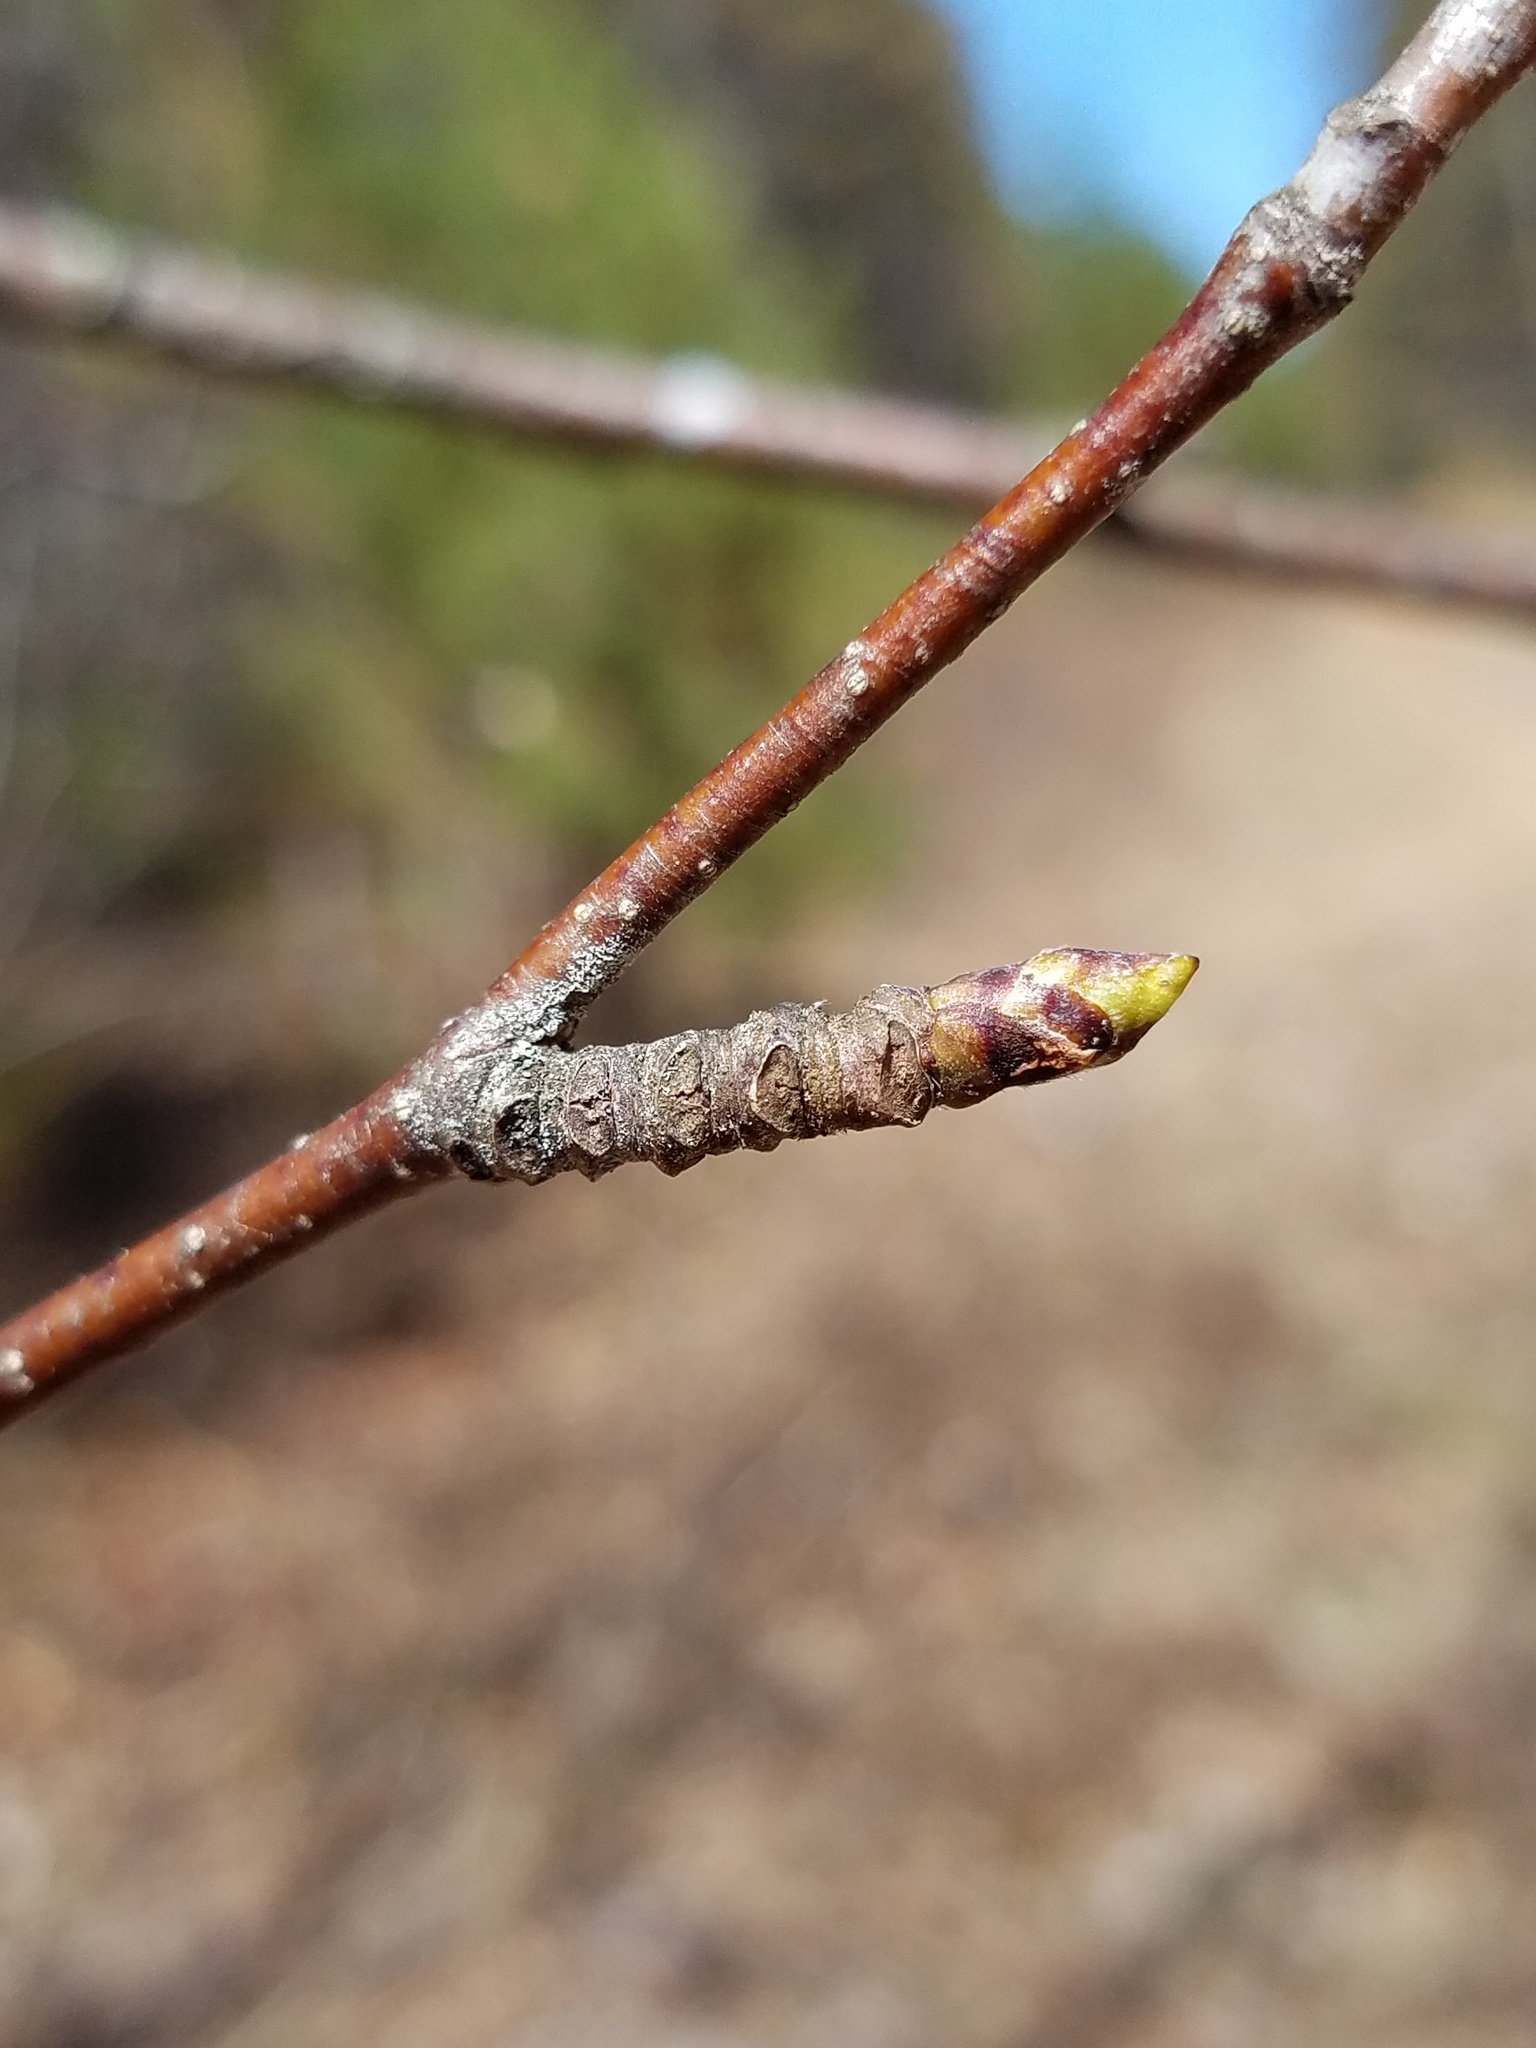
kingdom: Plantae
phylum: Tracheophyta
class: Magnoliopsida
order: Fagales
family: Betulaceae
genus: Betula
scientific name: Betula papyrifera
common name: Paper birch
